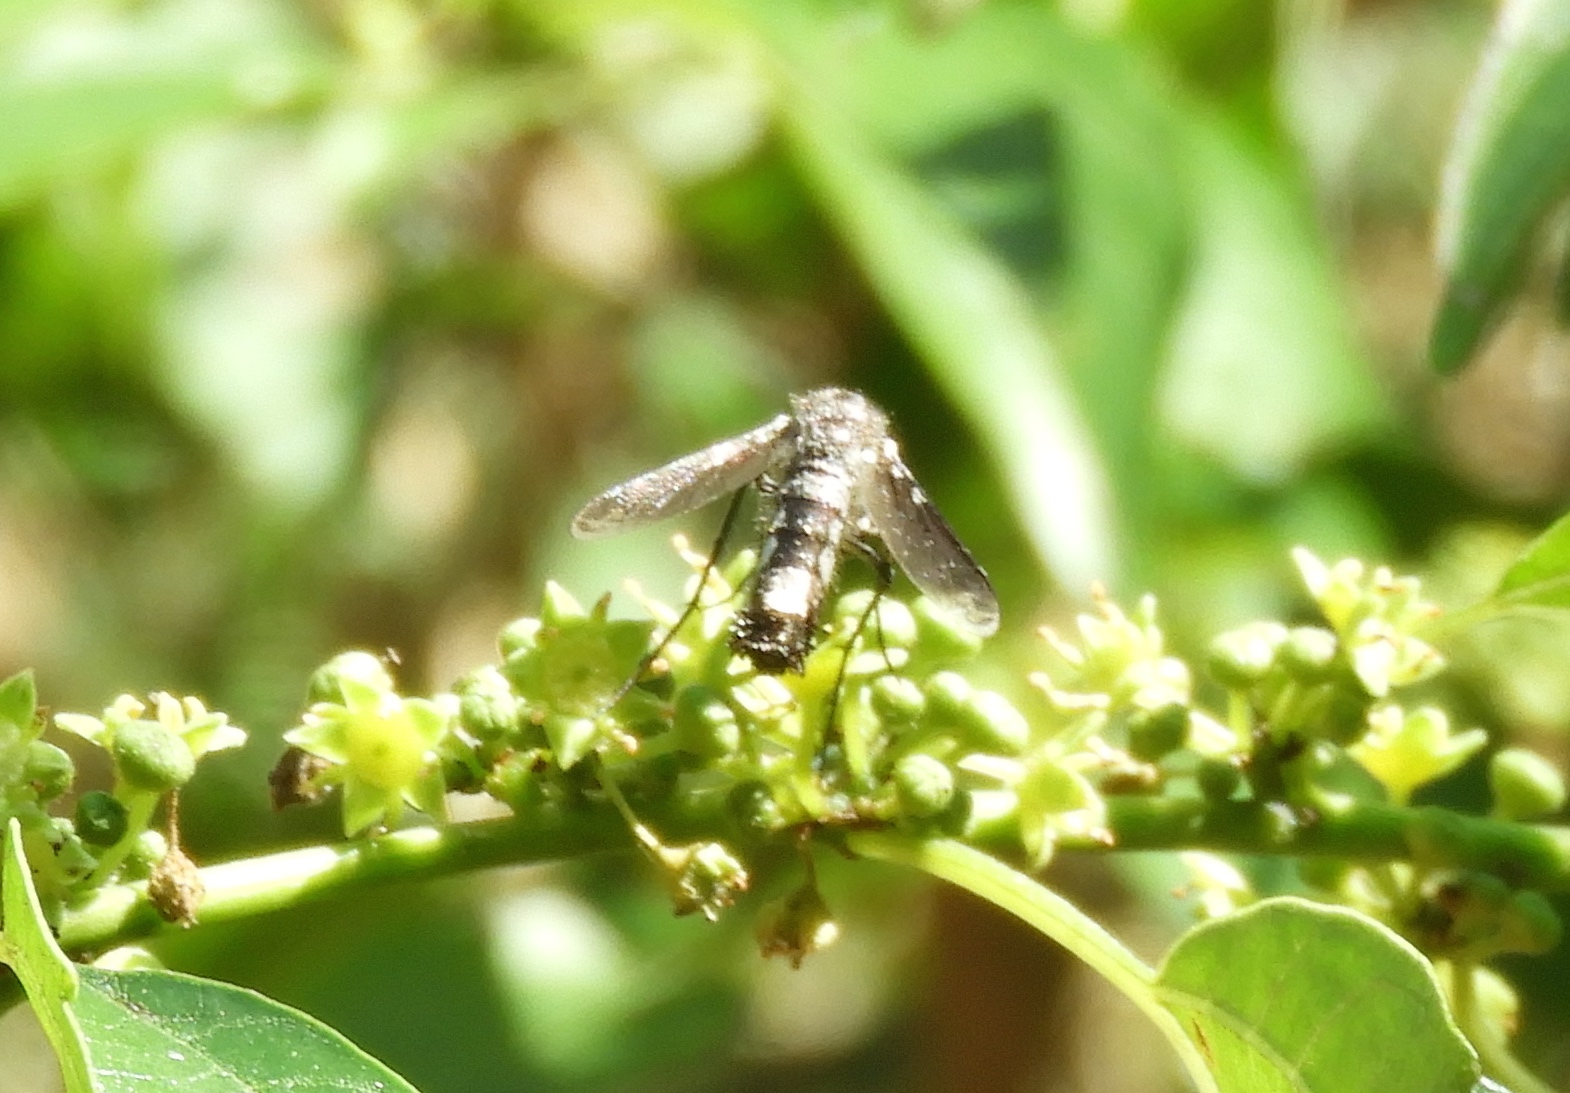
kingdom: Animalia
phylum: Arthropoda
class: Insecta
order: Diptera
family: Bombyliidae
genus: Lepidophora
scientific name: Lepidophora vetusta
